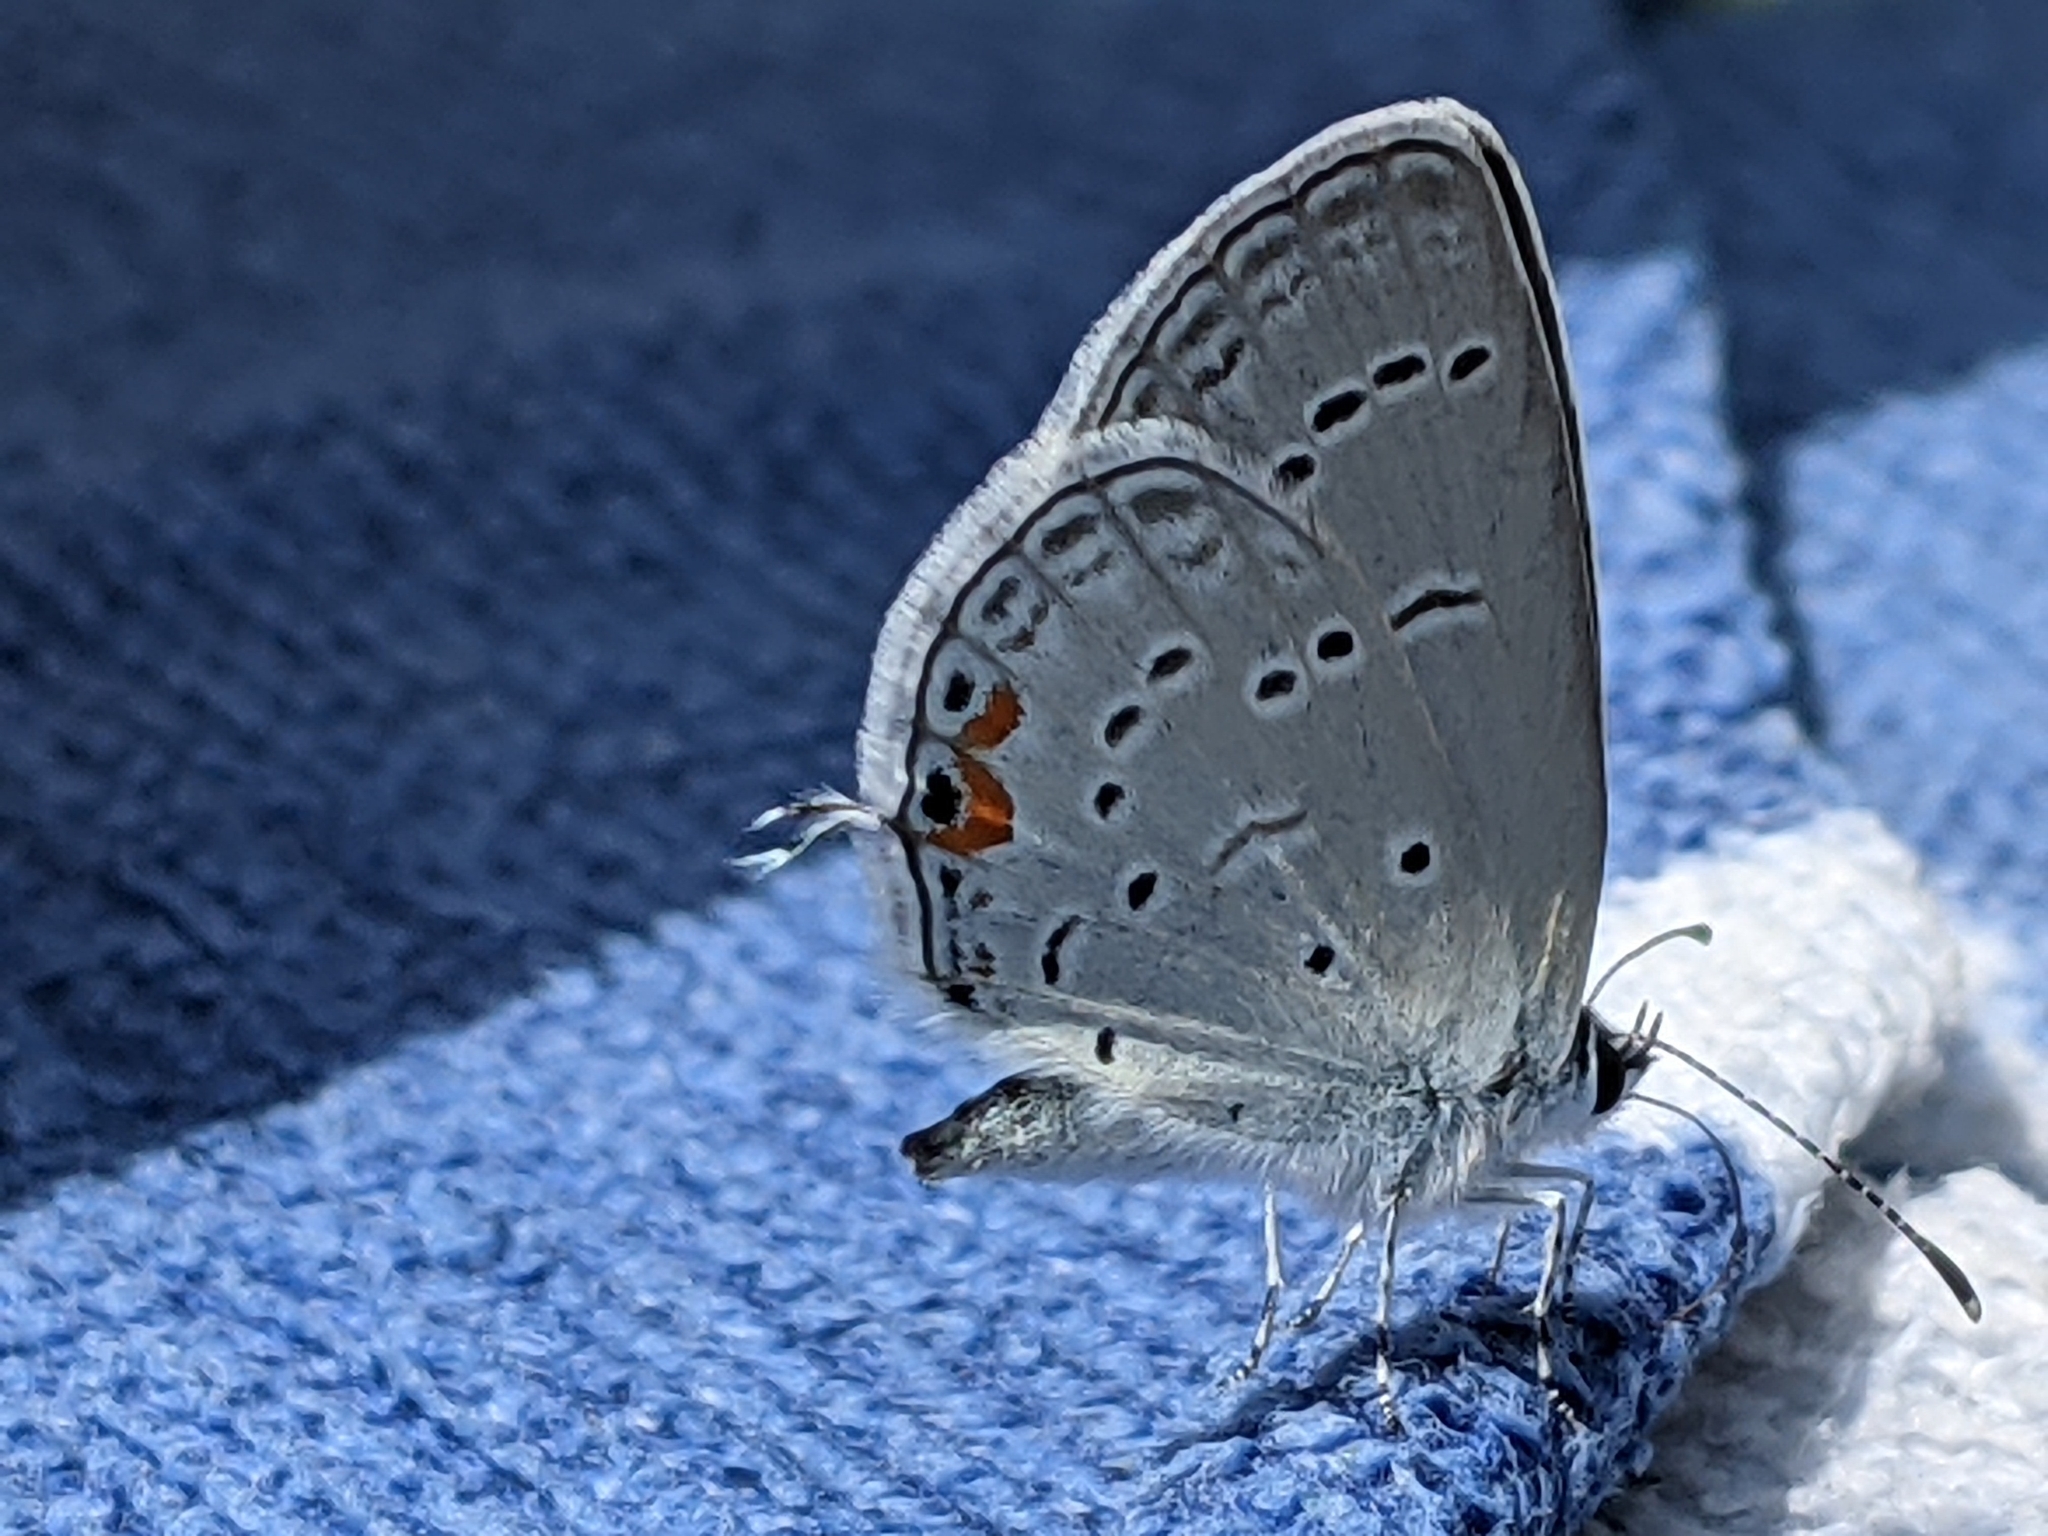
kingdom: Animalia
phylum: Arthropoda
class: Insecta
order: Lepidoptera
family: Lycaenidae
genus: Elkalyce
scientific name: Elkalyce comyntas
